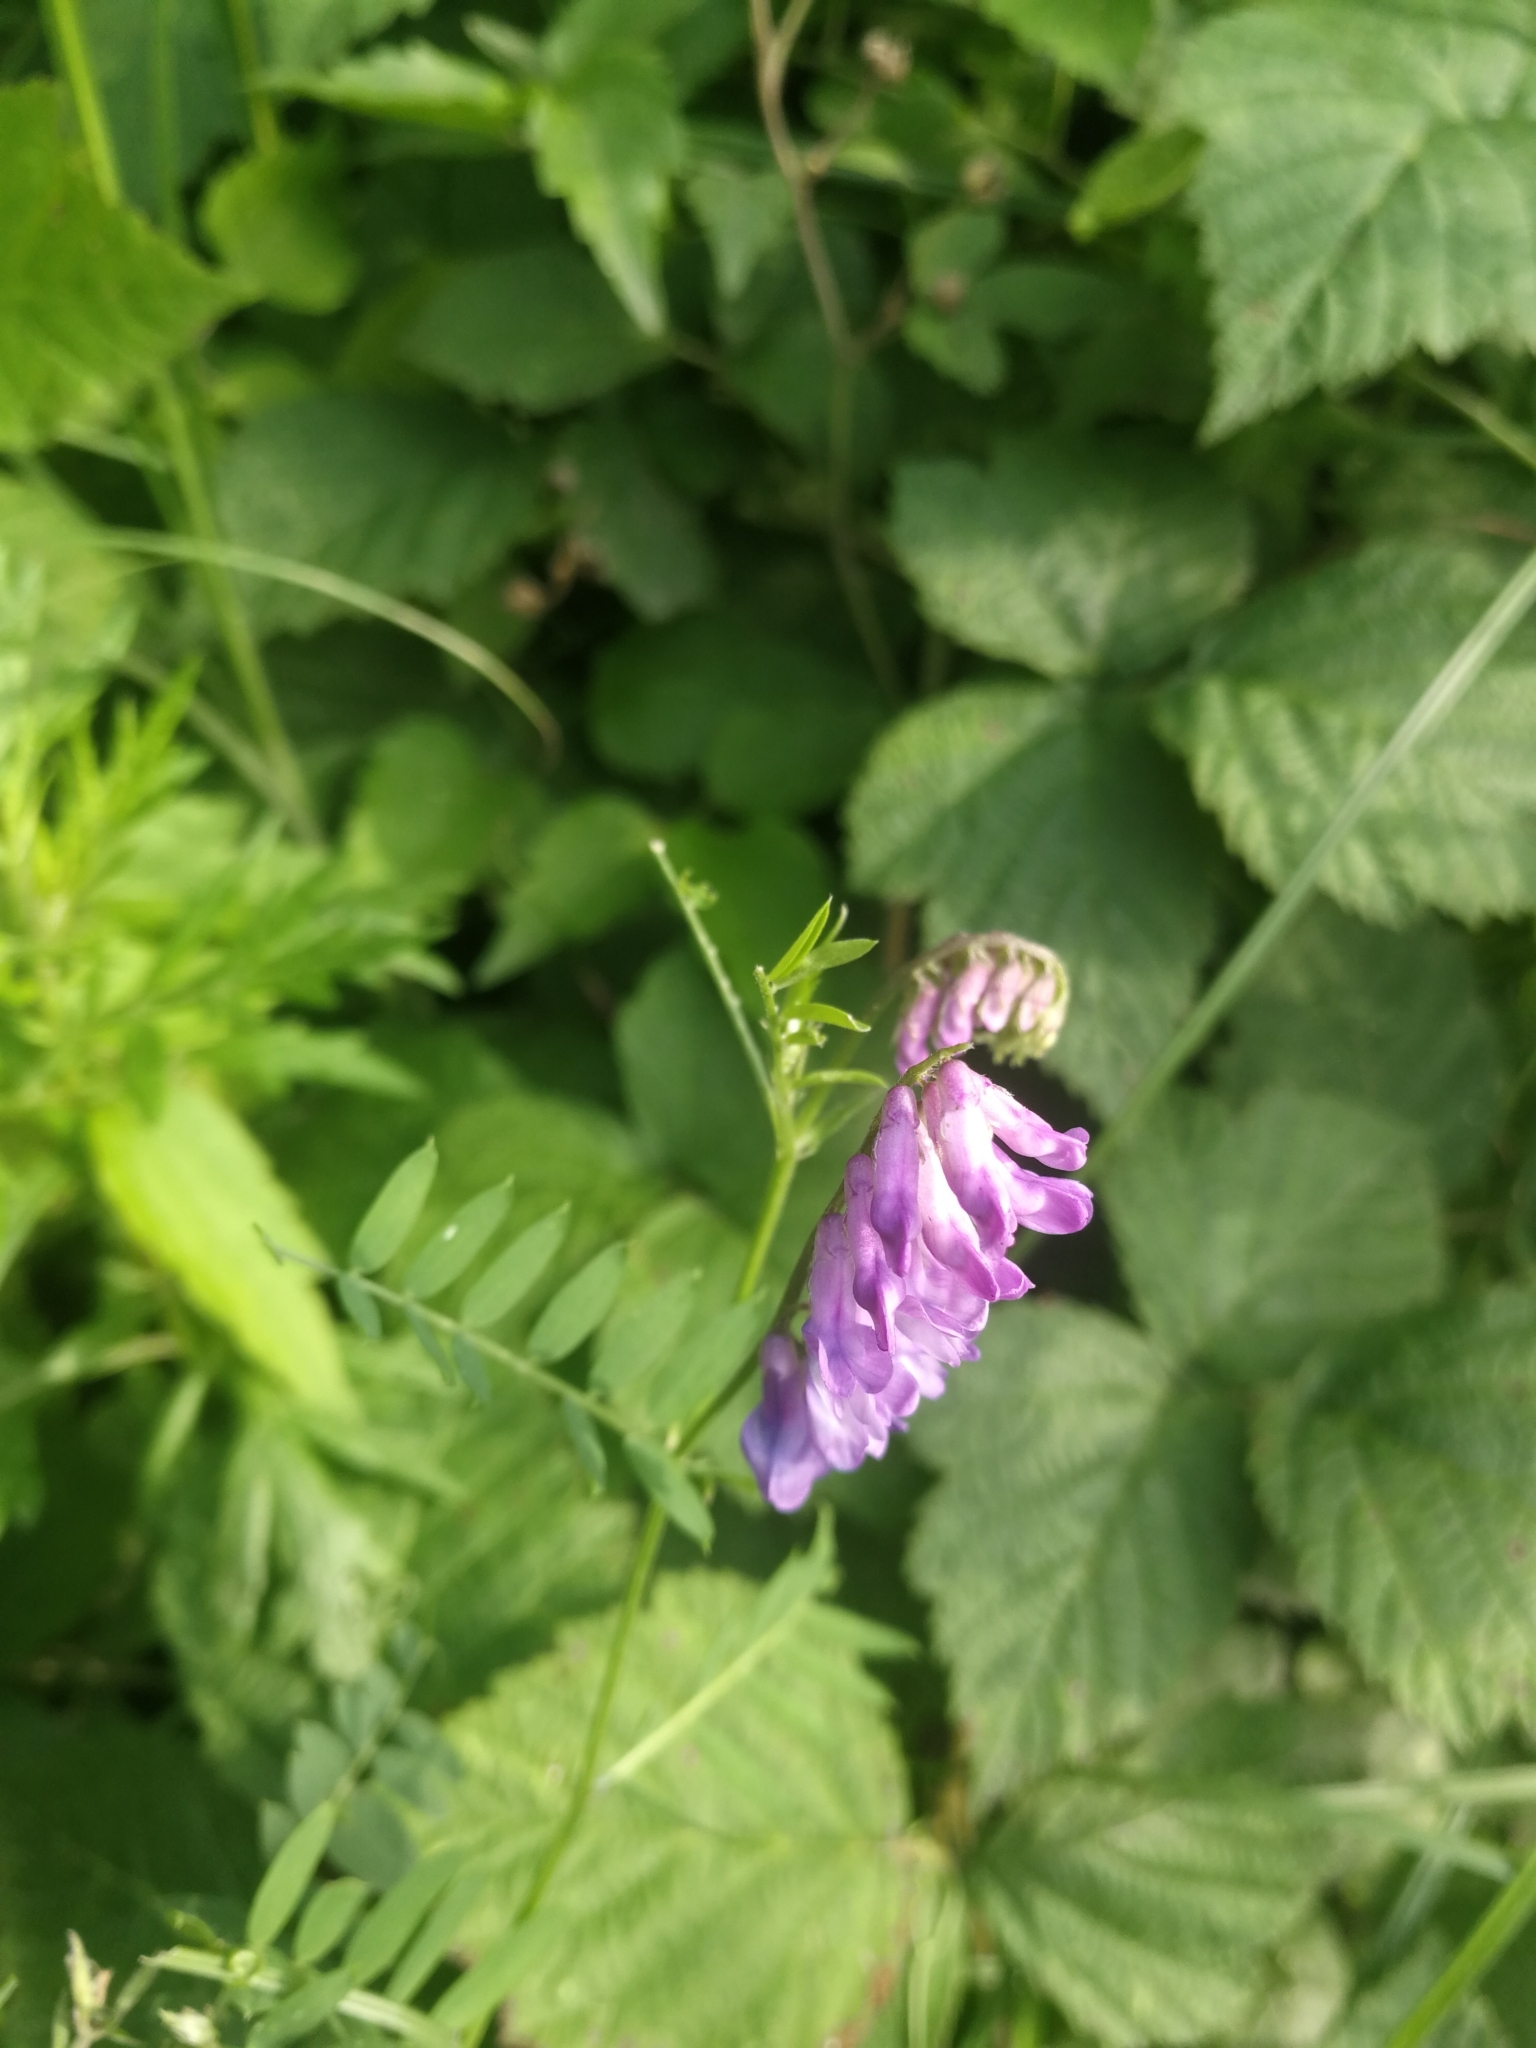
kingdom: Plantae
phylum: Tracheophyta
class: Magnoliopsida
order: Fabales
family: Fabaceae
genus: Vicia
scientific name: Vicia cracca
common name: Bird vetch
